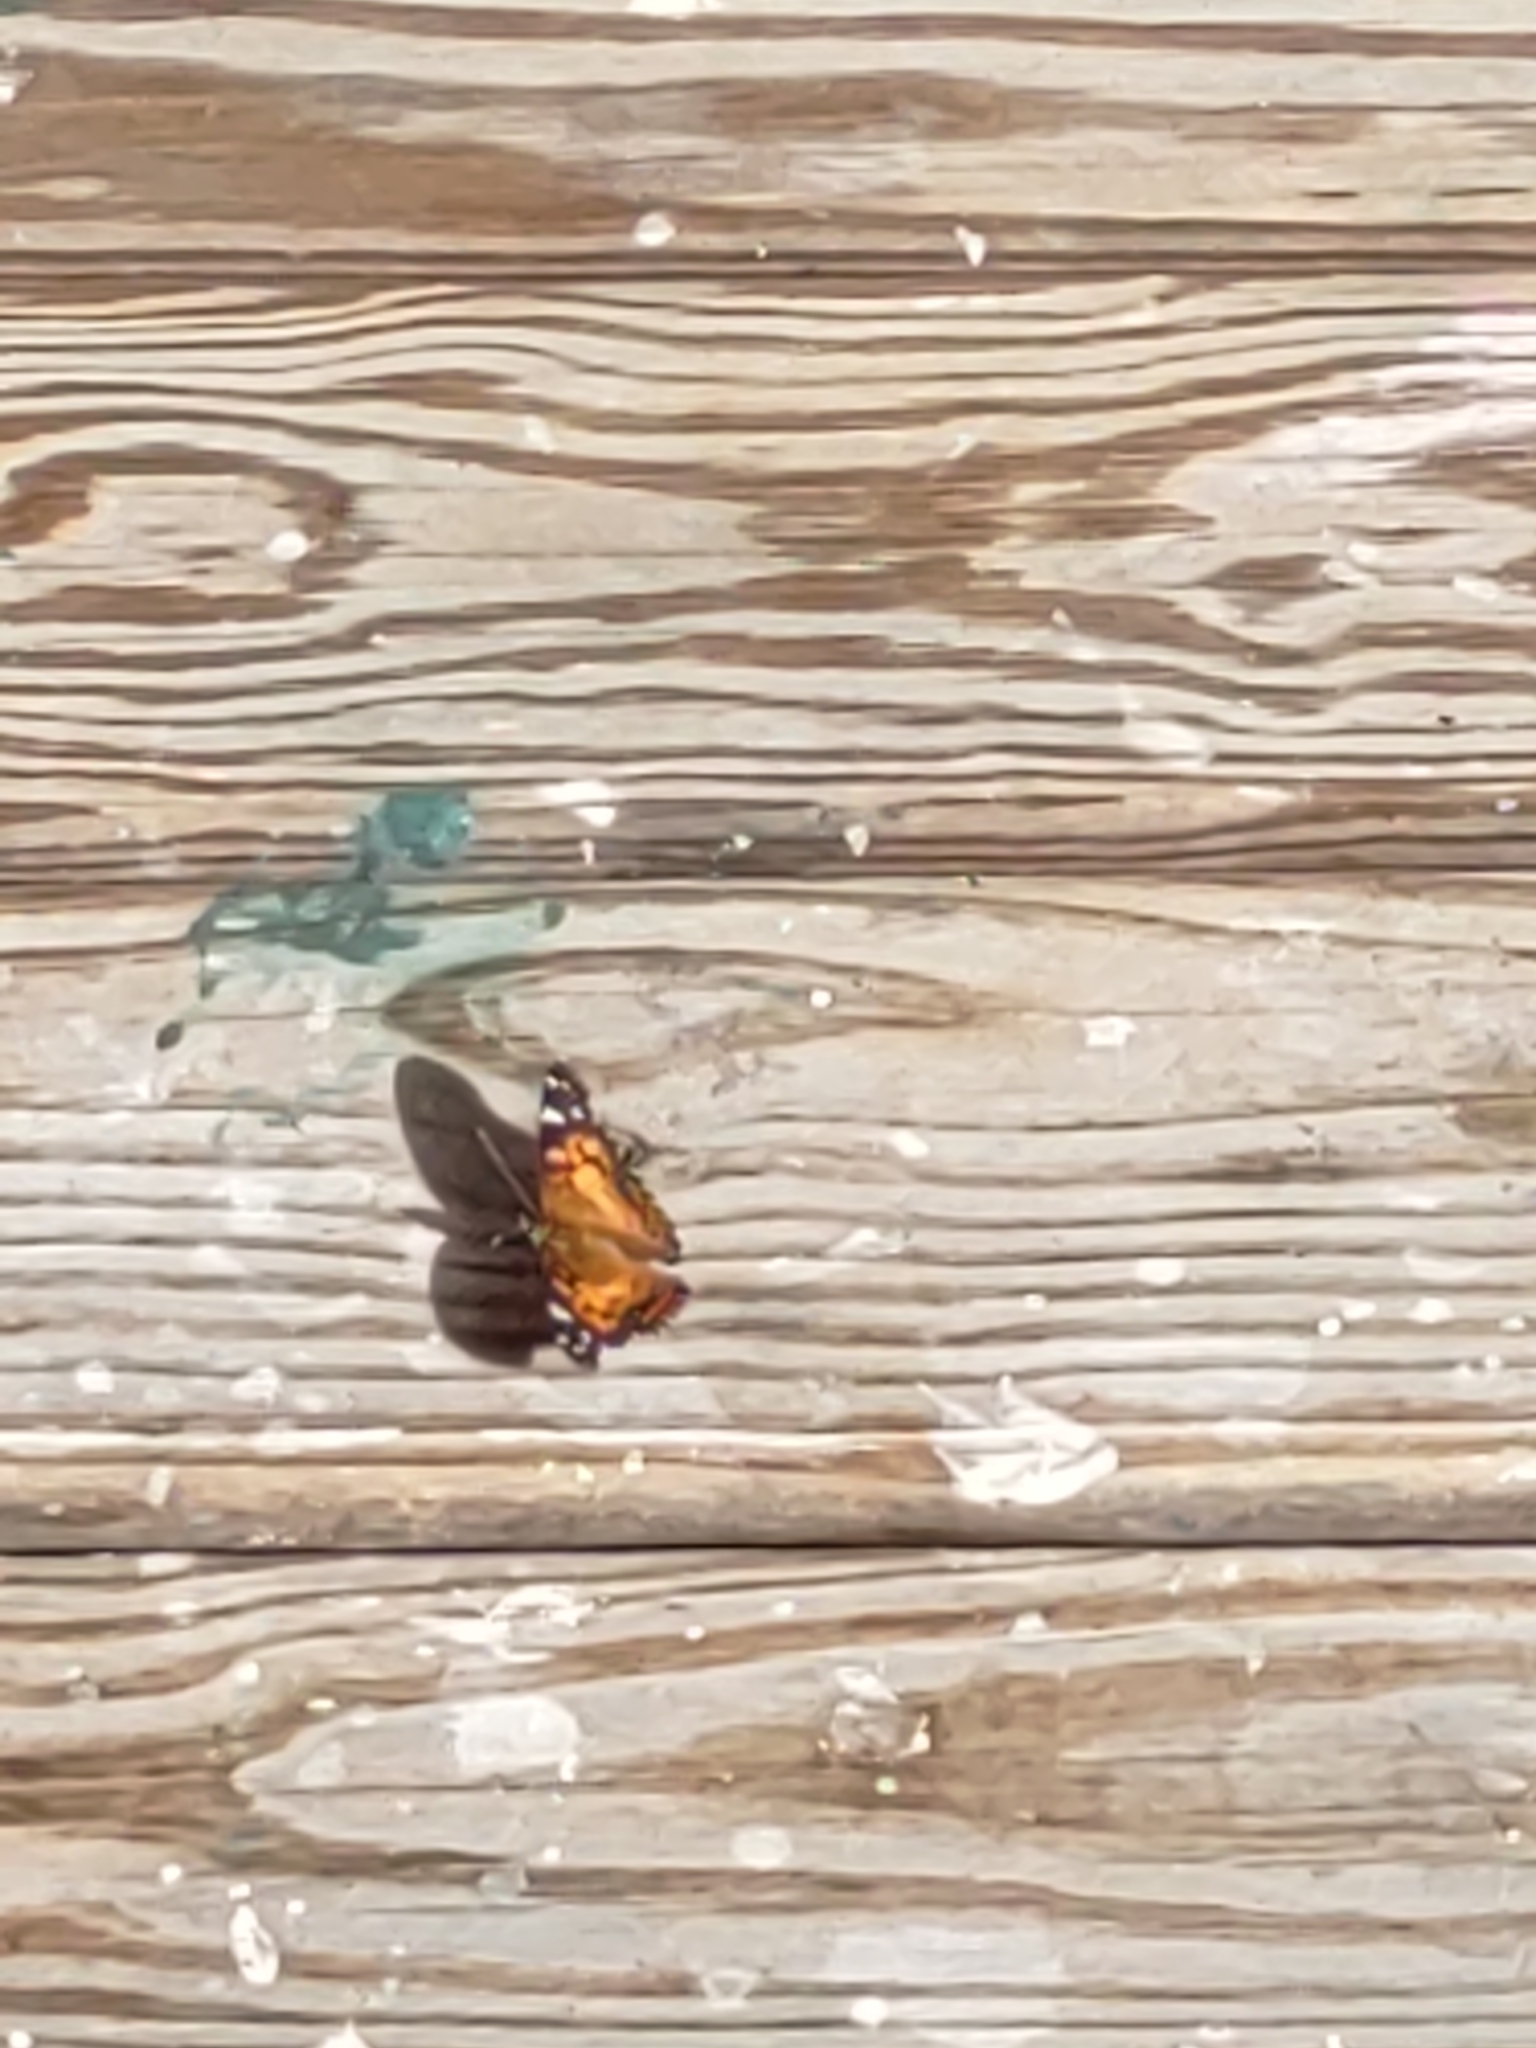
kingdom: Animalia
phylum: Arthropoda
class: Insecta
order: Lepidoptera
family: Nymphalidae
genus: Vanessa
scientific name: Vanessa virginiensis
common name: American lady
